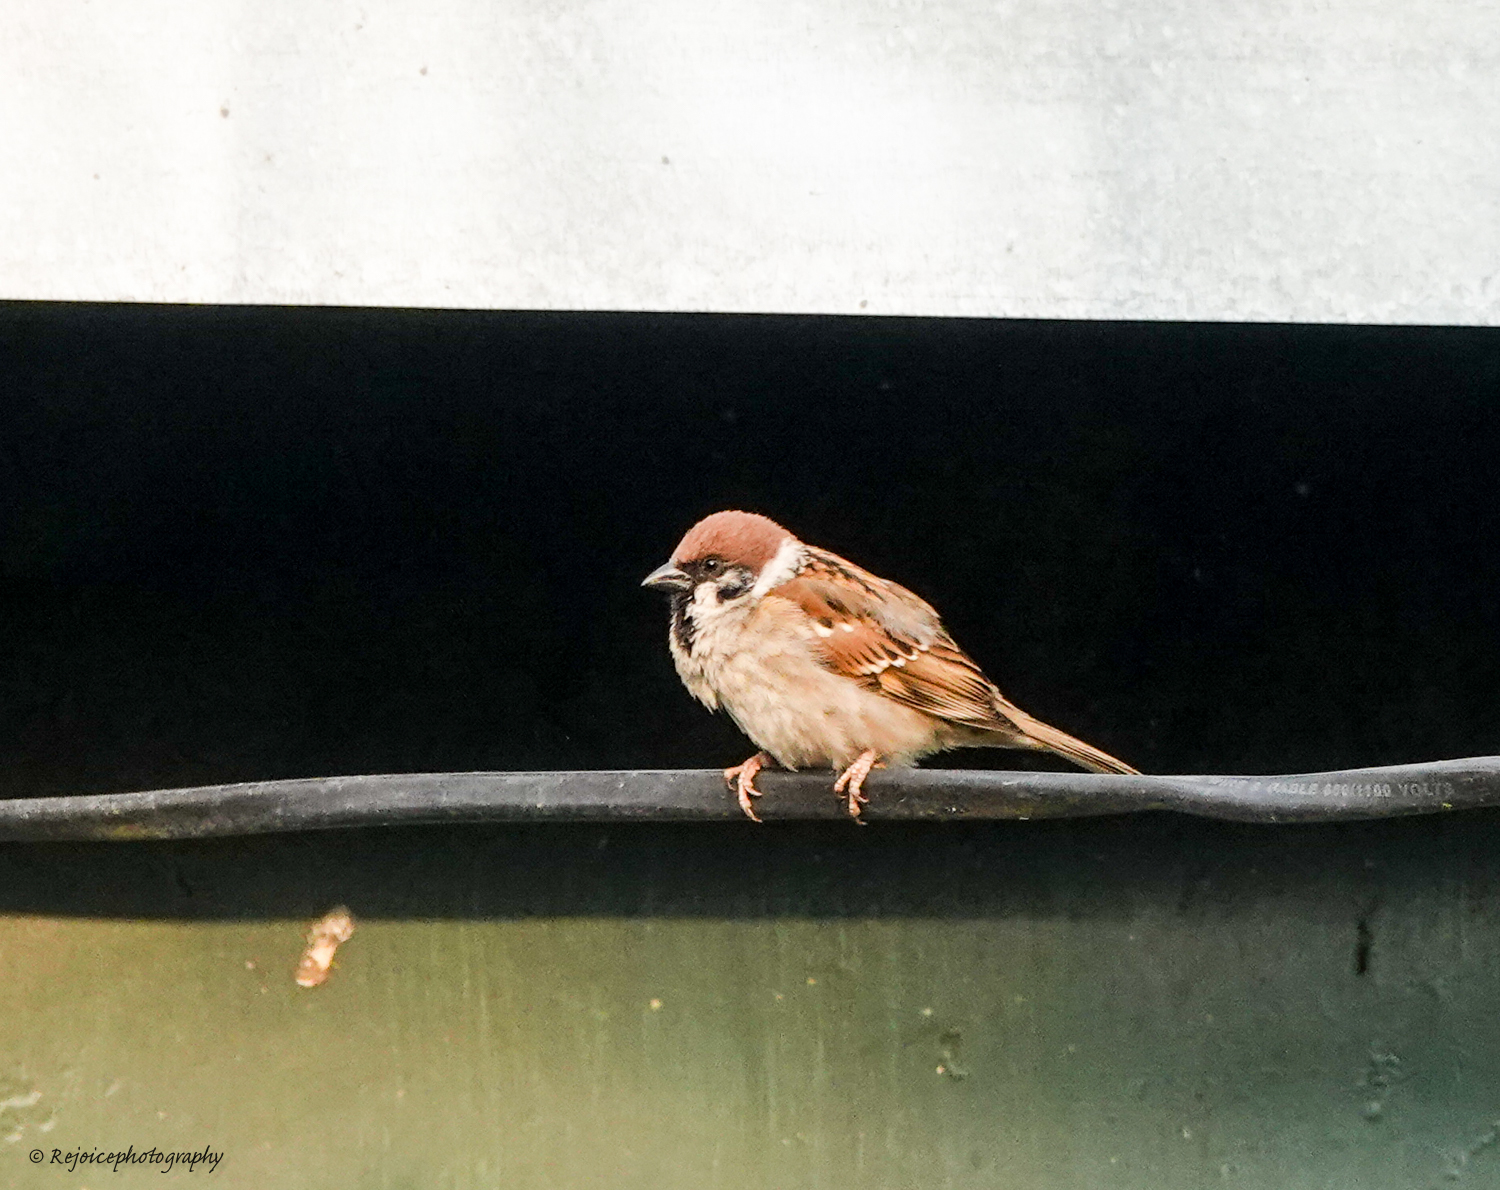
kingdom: Animalia
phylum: Chordata
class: Aves
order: Passeriformes
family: Passeridae
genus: Passer
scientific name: Passer montanus
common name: Eurasian tree sparrow
